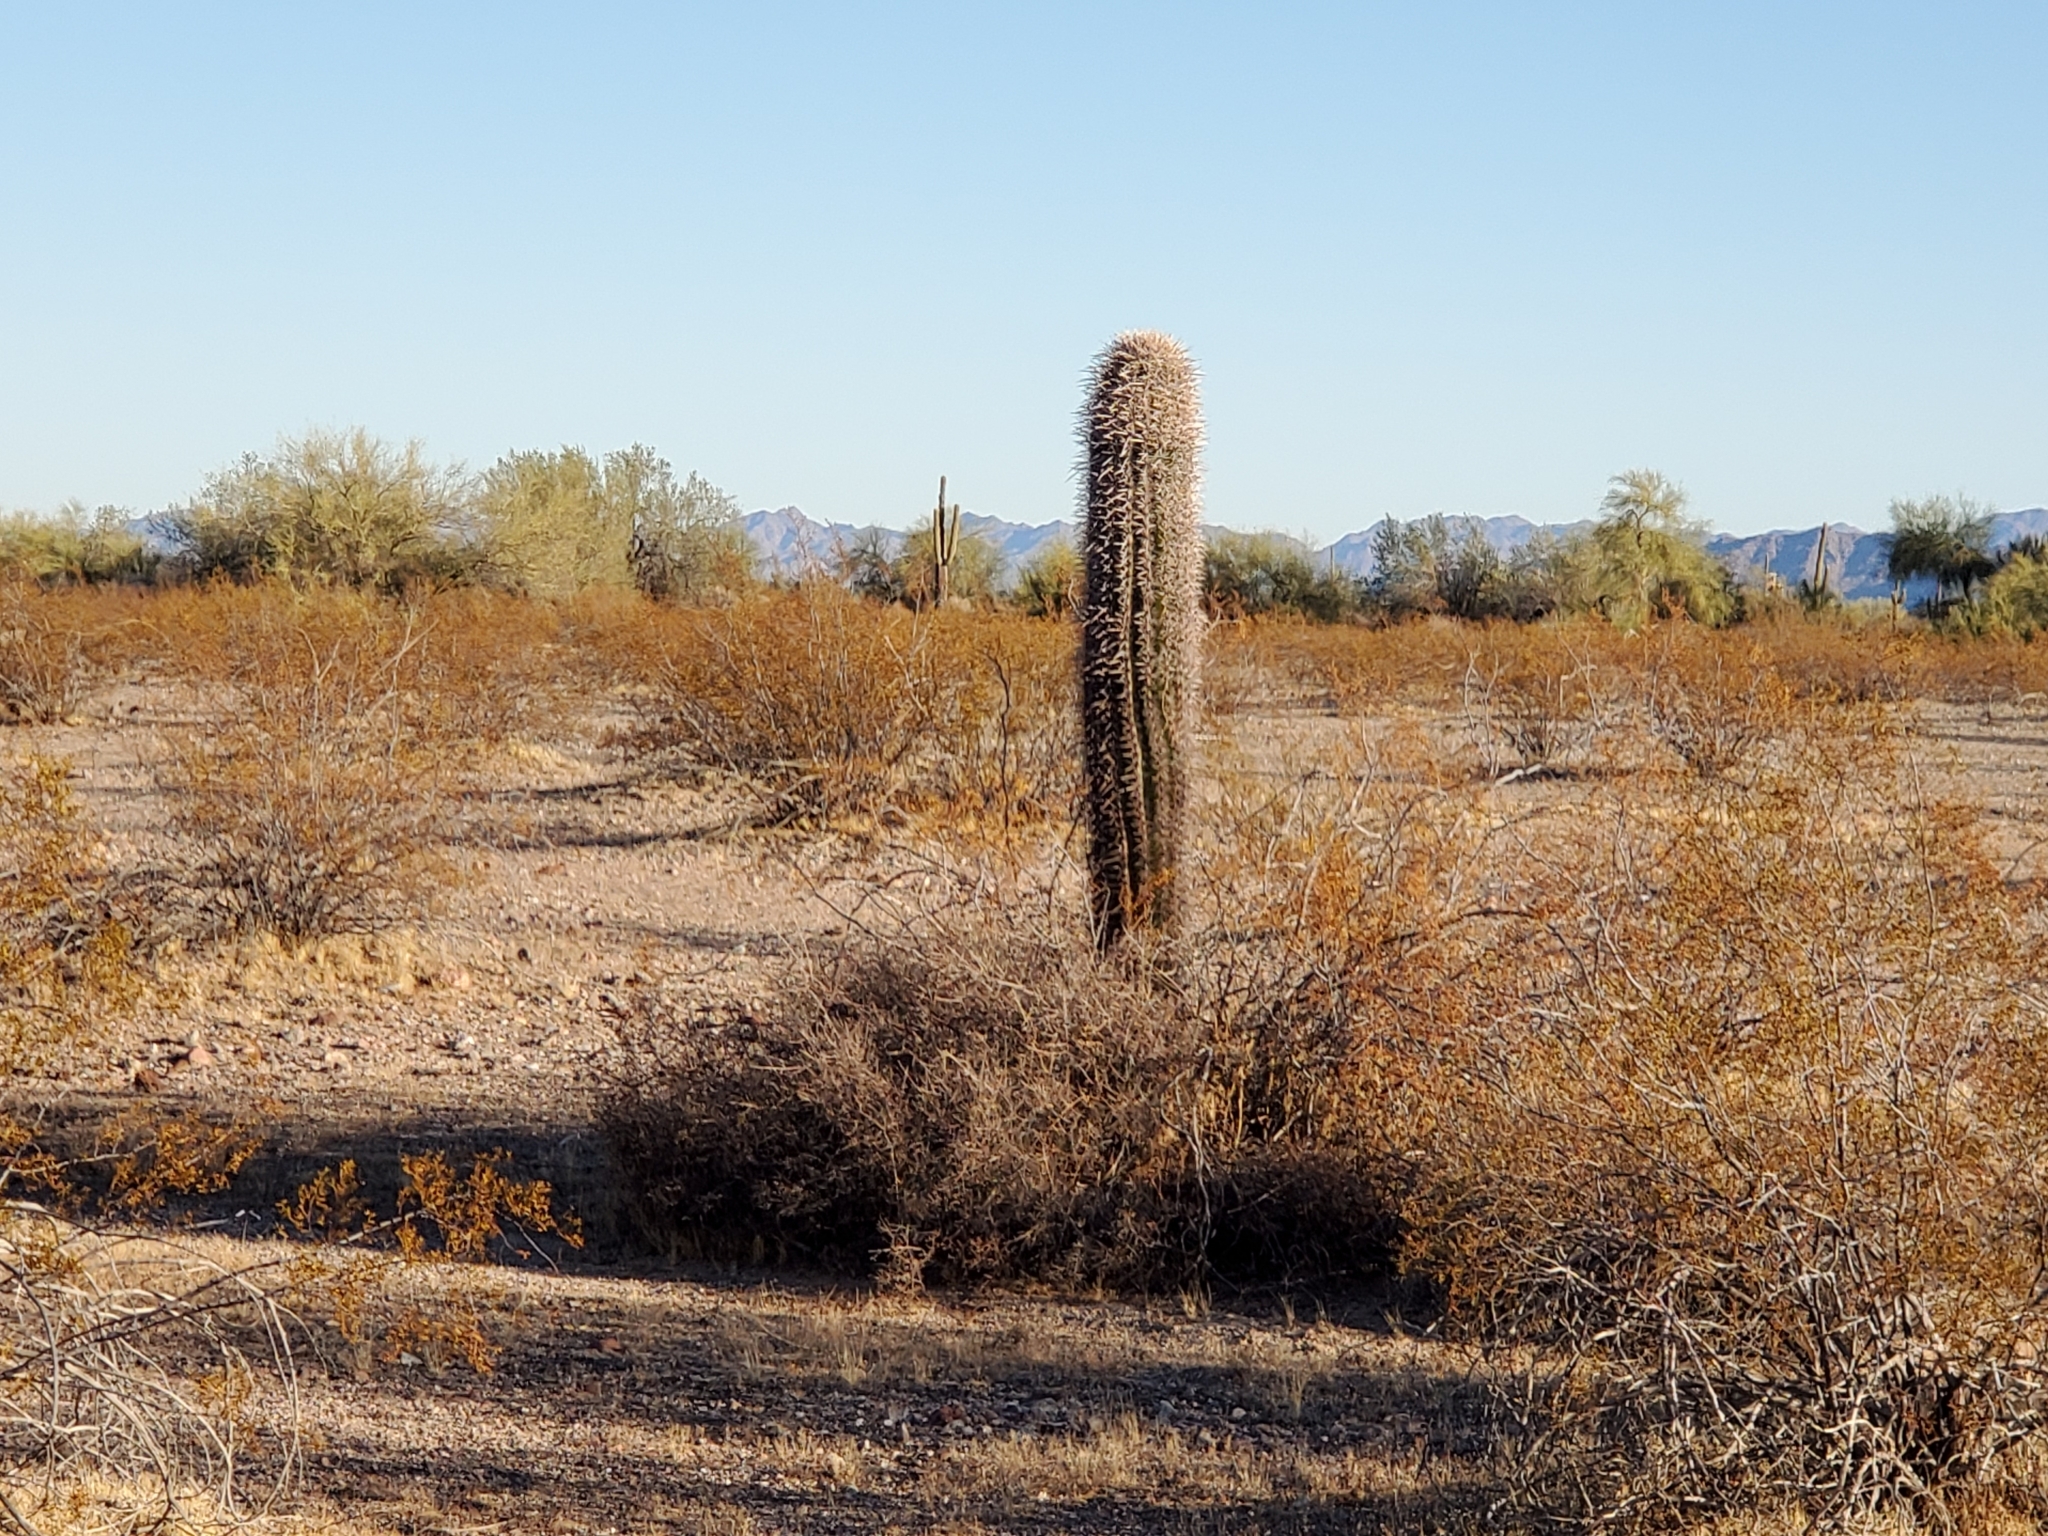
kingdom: Plantae
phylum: Tracheophyta
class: Magnoliopsida
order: Caryophyllales
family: Cactaceae
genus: Carnegiea
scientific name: Carnegiea gigantea
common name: Saguaro
